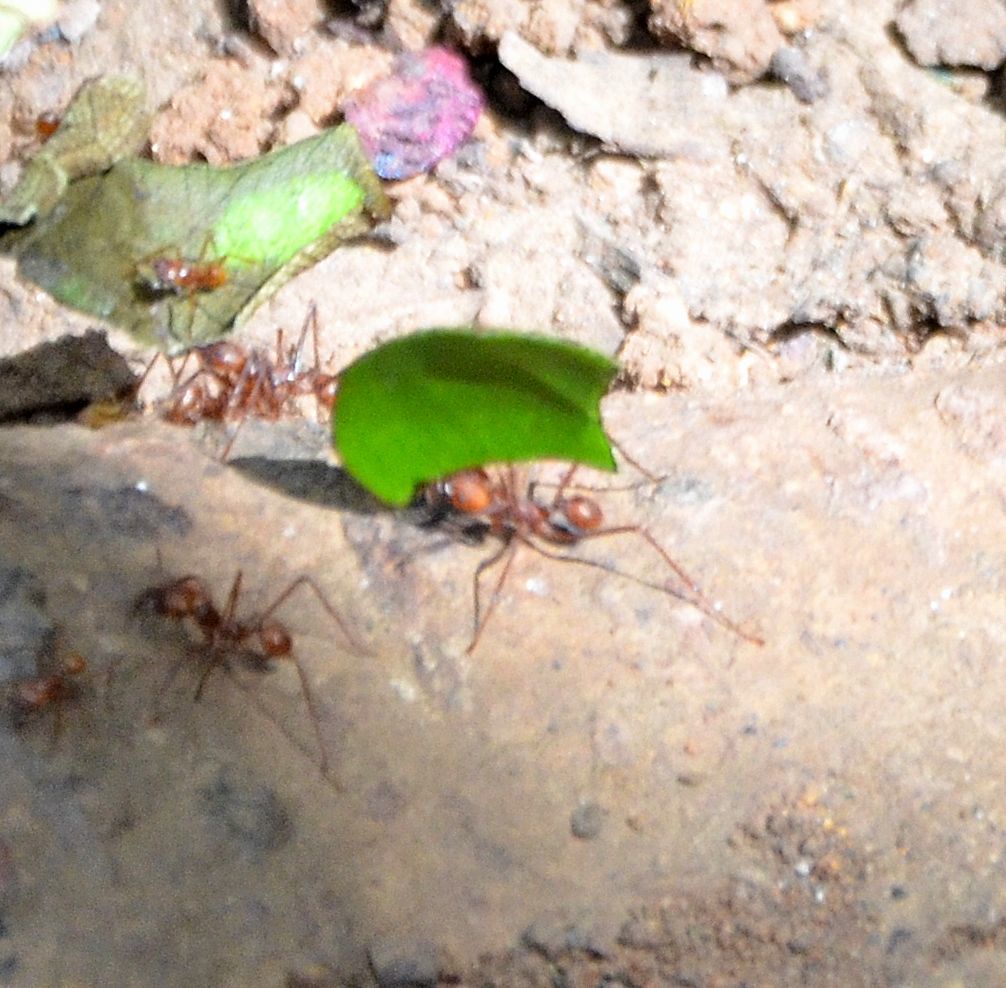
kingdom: Animalia
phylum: Arthropoda
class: Insecta
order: Hymenoptera
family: Formicidae
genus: Atta
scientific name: Atta cephalotes
